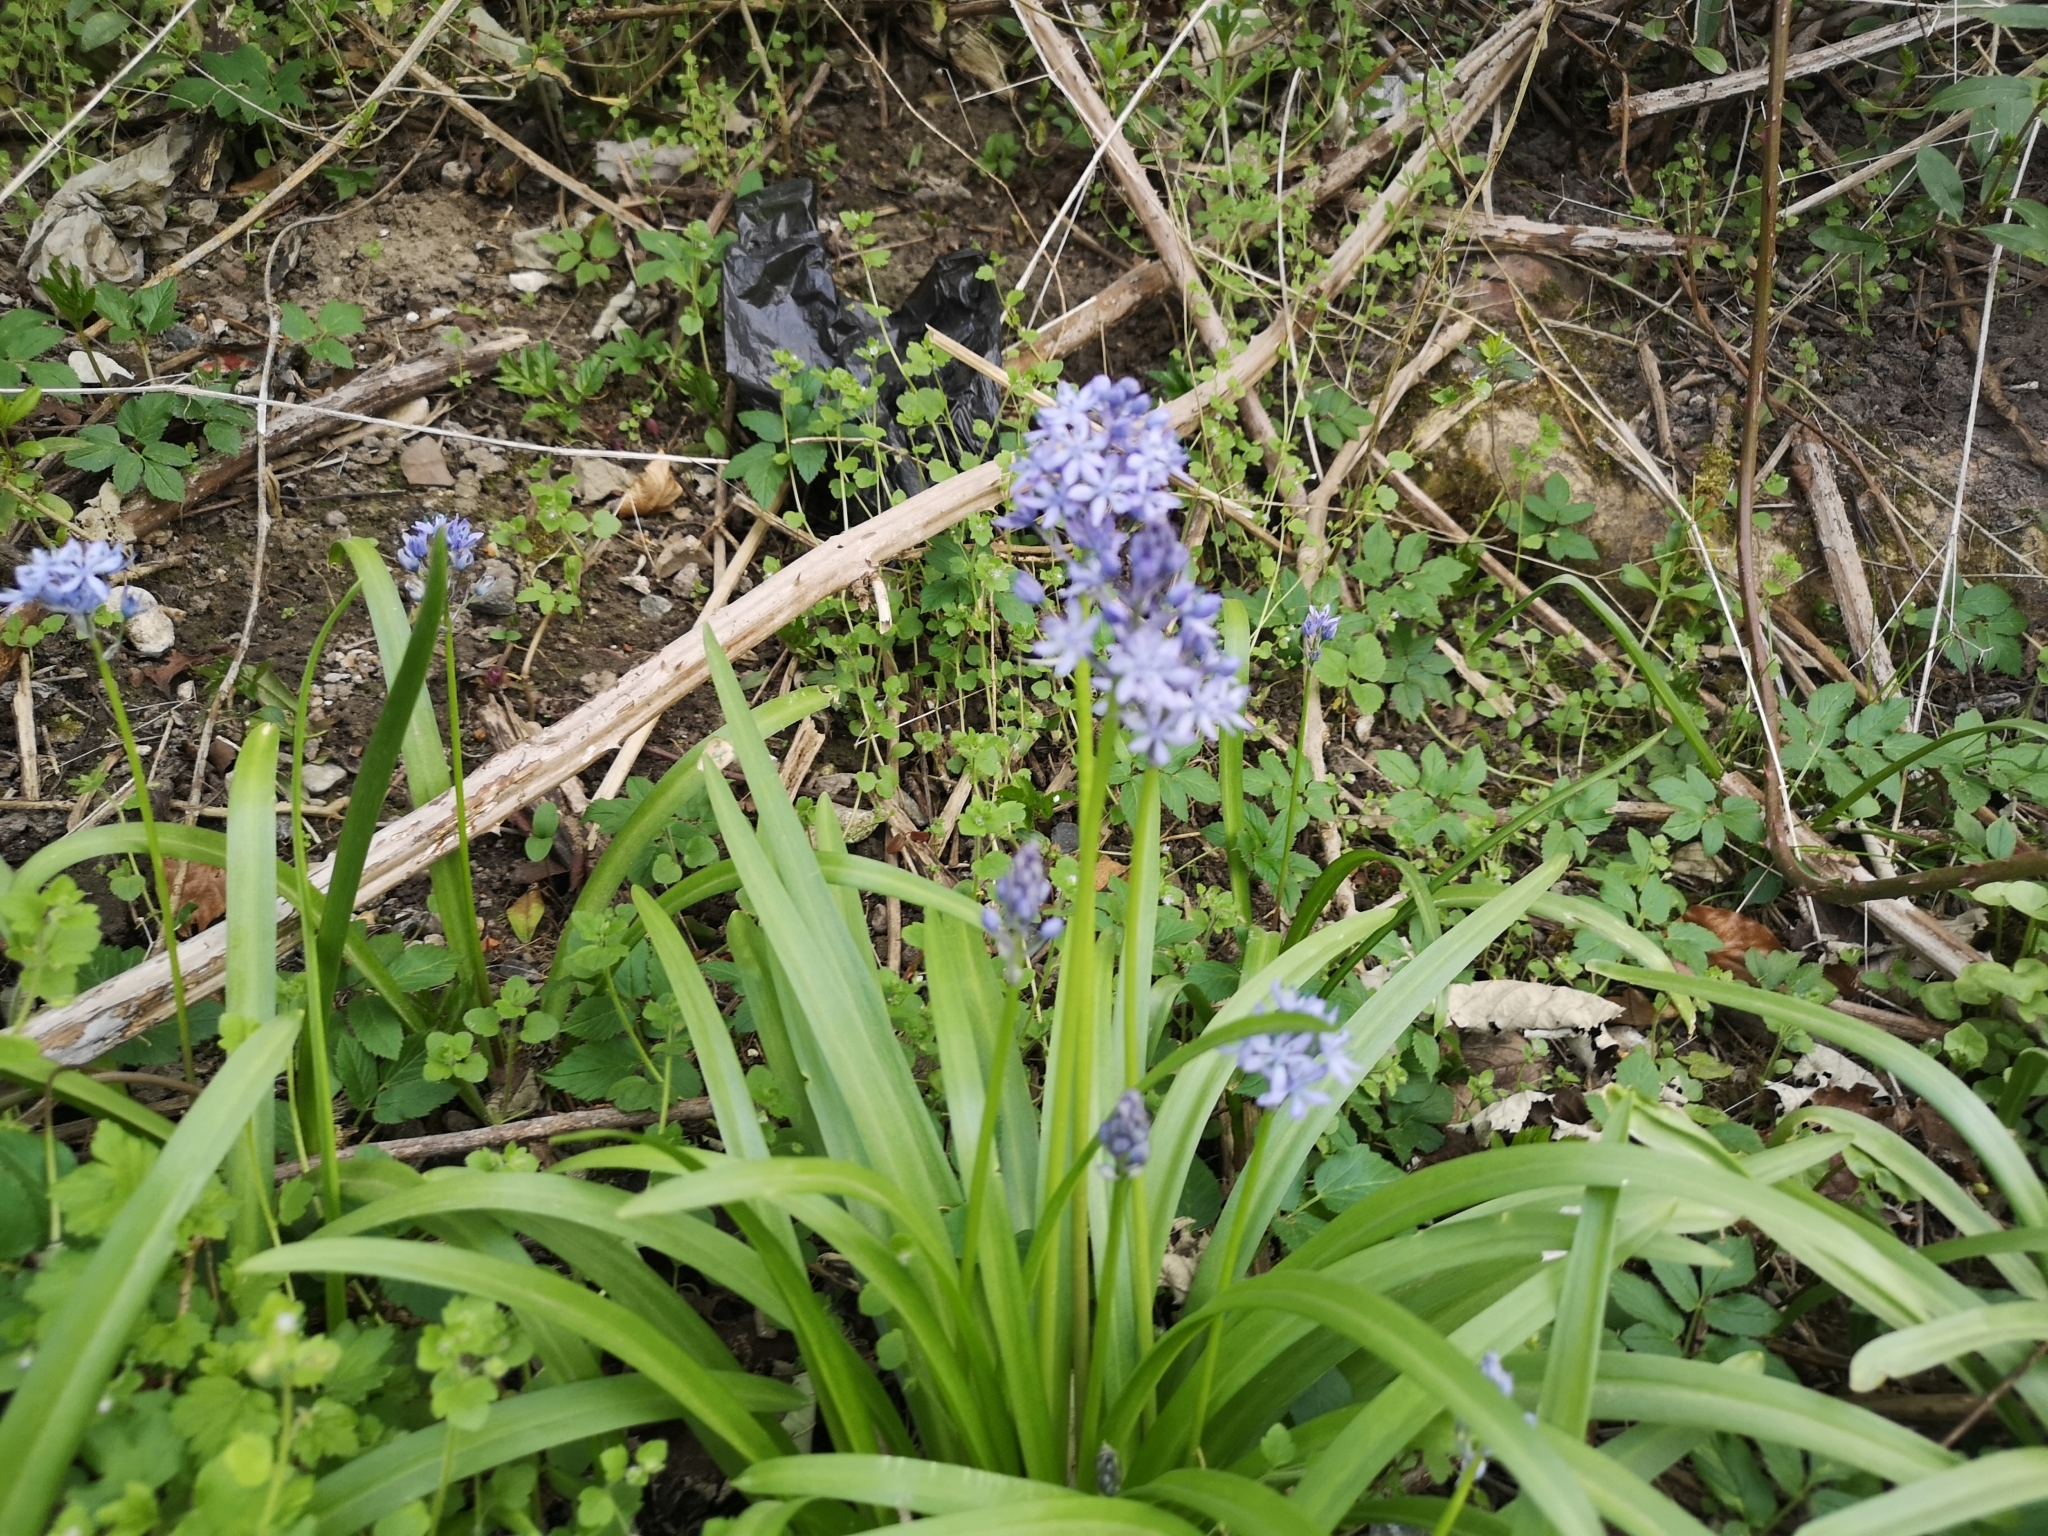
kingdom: Plantae
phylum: Tracheophyta
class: Liliopsida
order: Asparagales
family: Asparagaceae
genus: Hyacinthoides
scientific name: Hyacinthoides italica
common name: Italian bluebell
